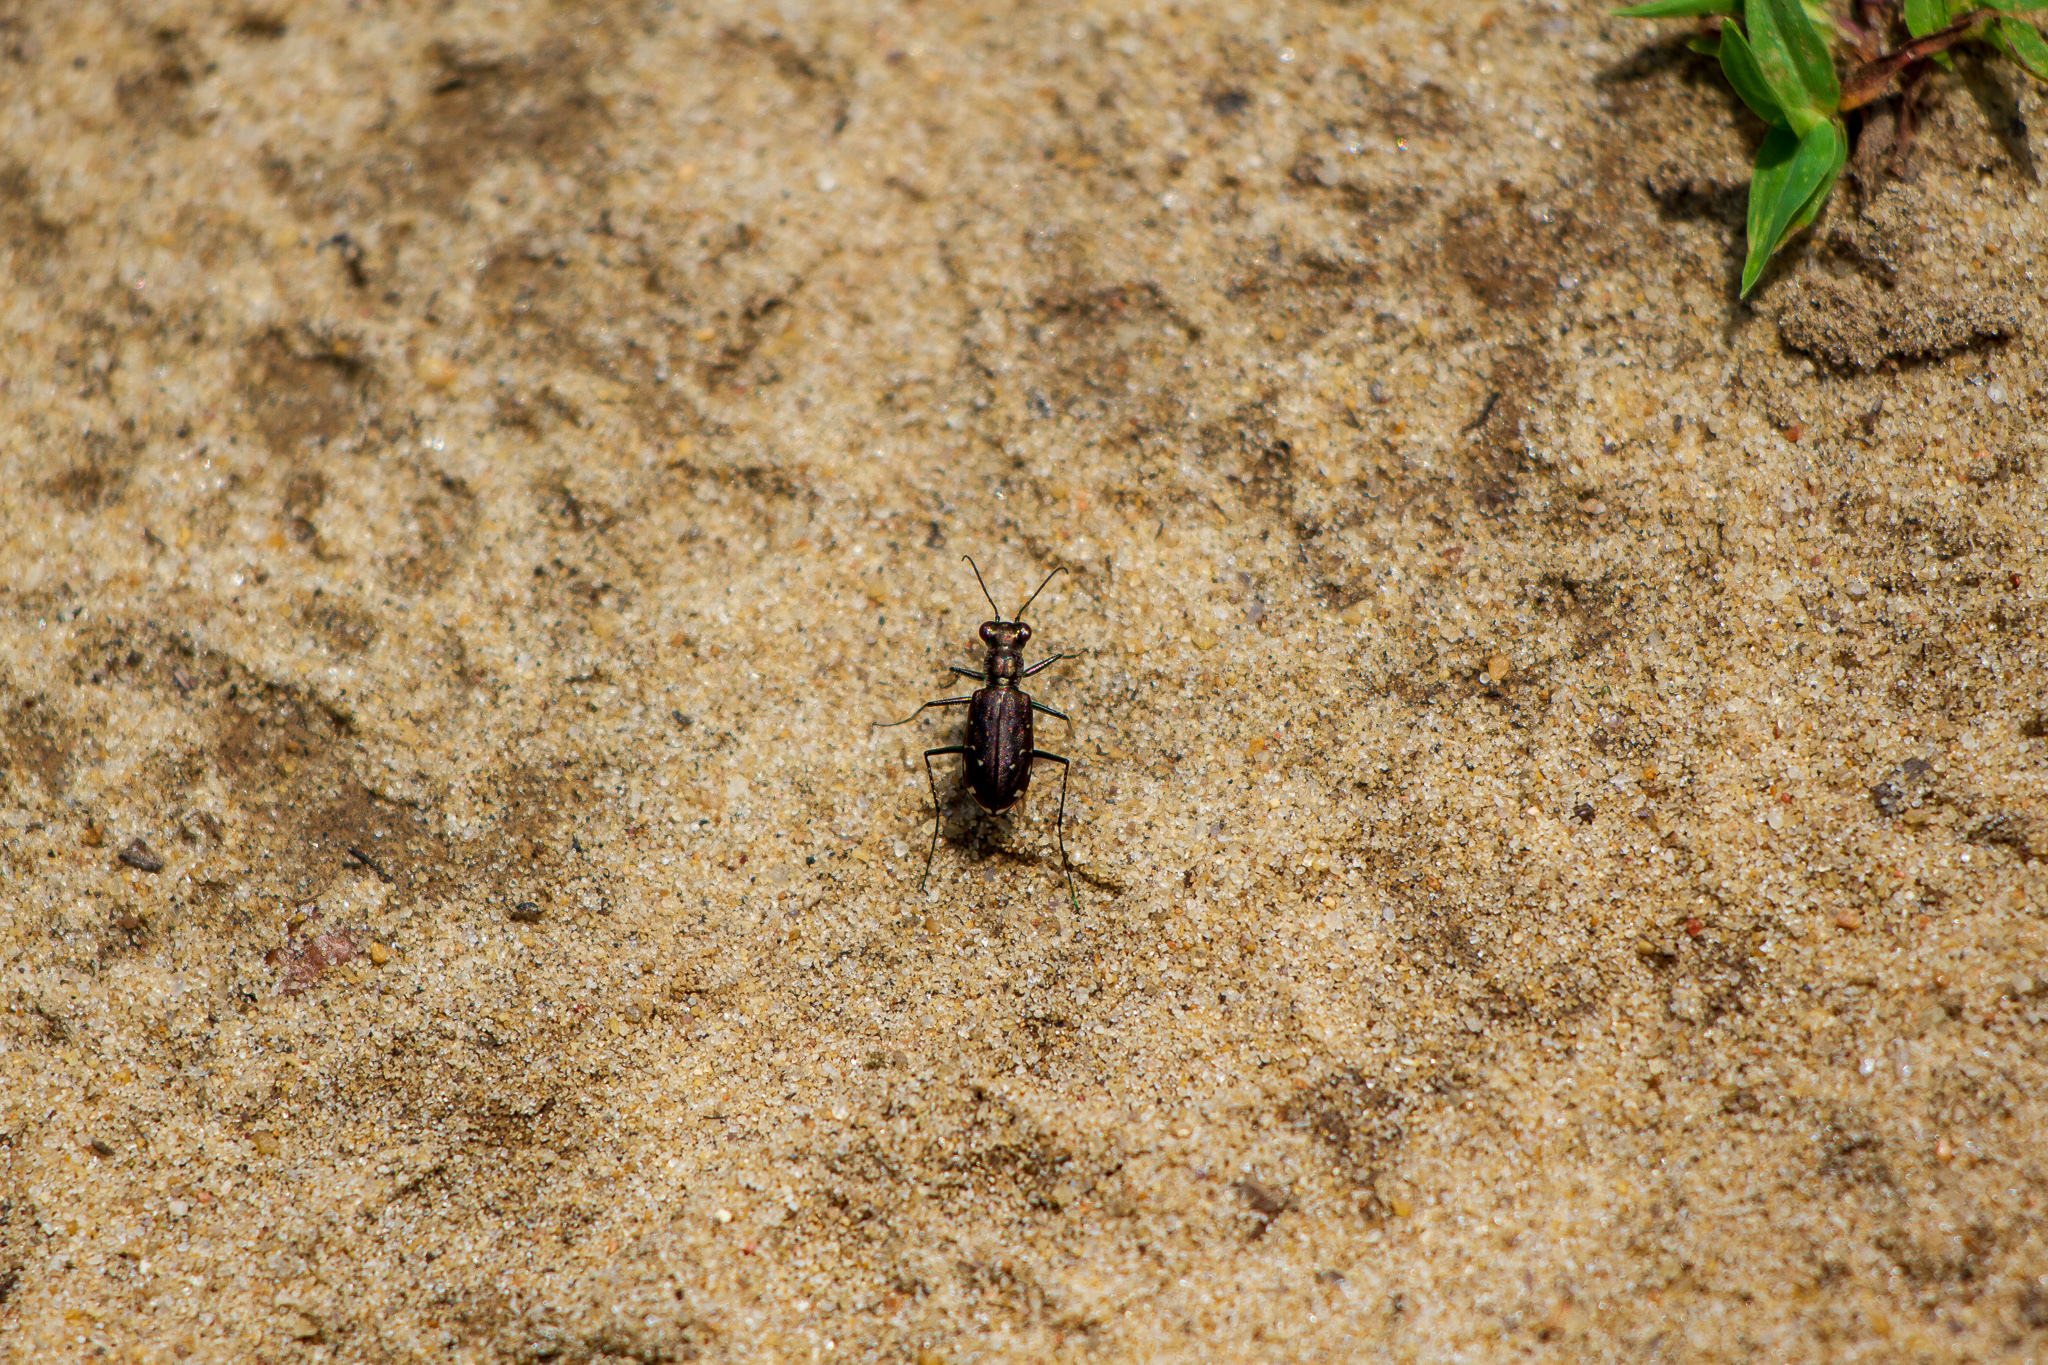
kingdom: Animalia
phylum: Arthropoda
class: Insecta
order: Coleoptera
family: Carabidae
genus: Cicindela
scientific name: Cicindela punctulata
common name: Punctured tiger beetle
